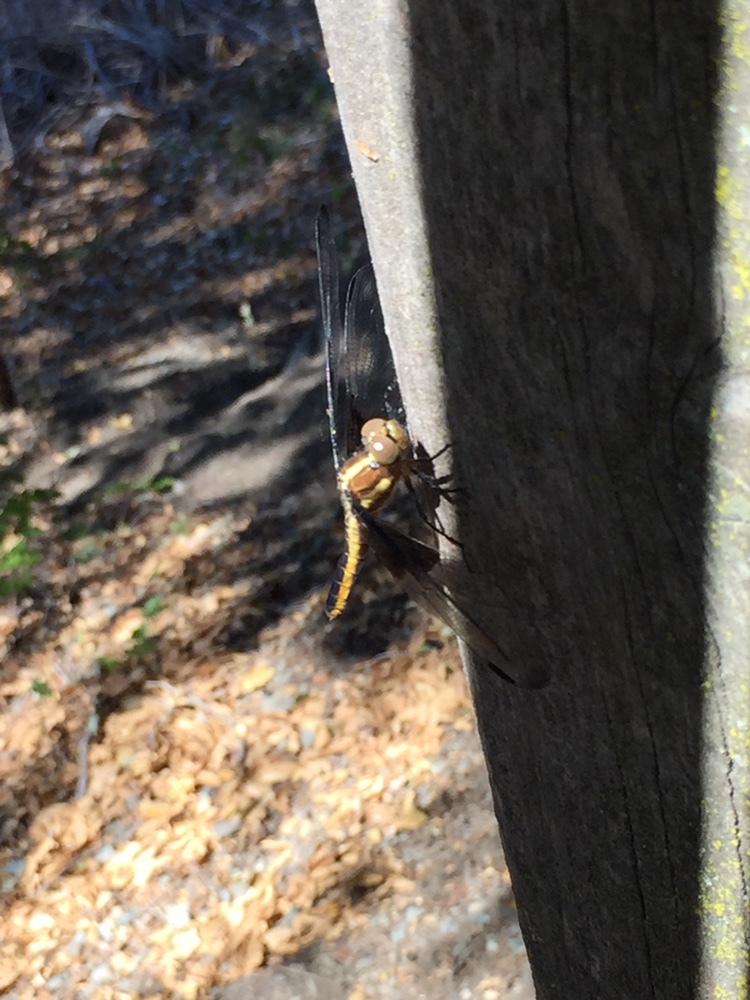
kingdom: Animalia
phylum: Arthropoda
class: Insecta
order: Odonata
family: Libellulidae
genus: Libellula
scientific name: Libellula luctuosa
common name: Widow skimmer
